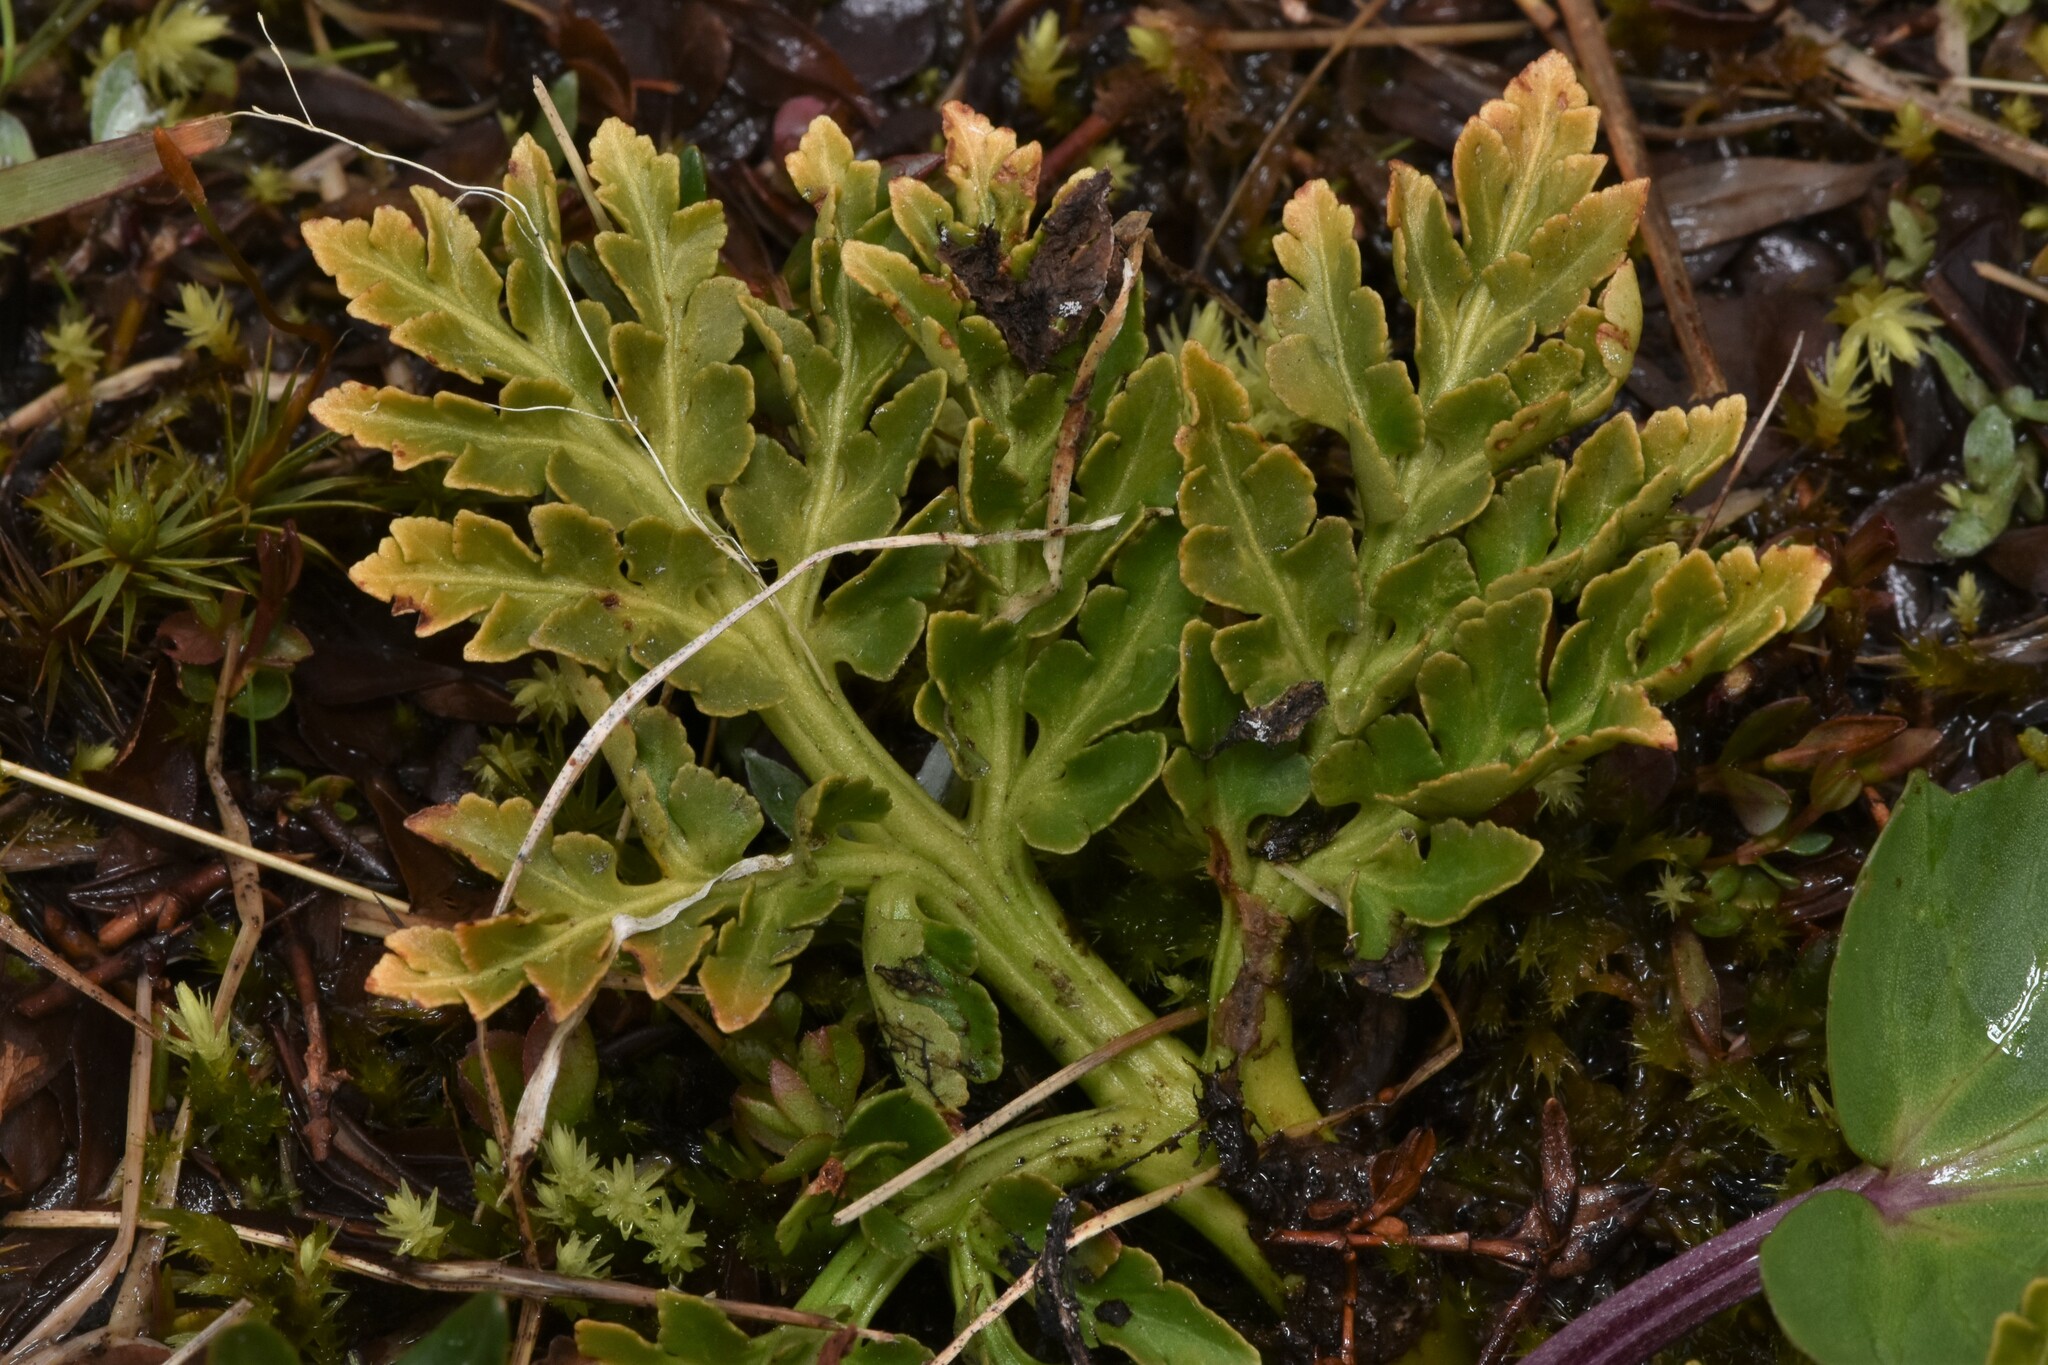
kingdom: Plantae
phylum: Tracheophyta
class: Polypodiopsida
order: Ophioglossales
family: Ophioglossaceae
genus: Sceptridium
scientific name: Sceptridium multifidum
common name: Leathery grape fern
